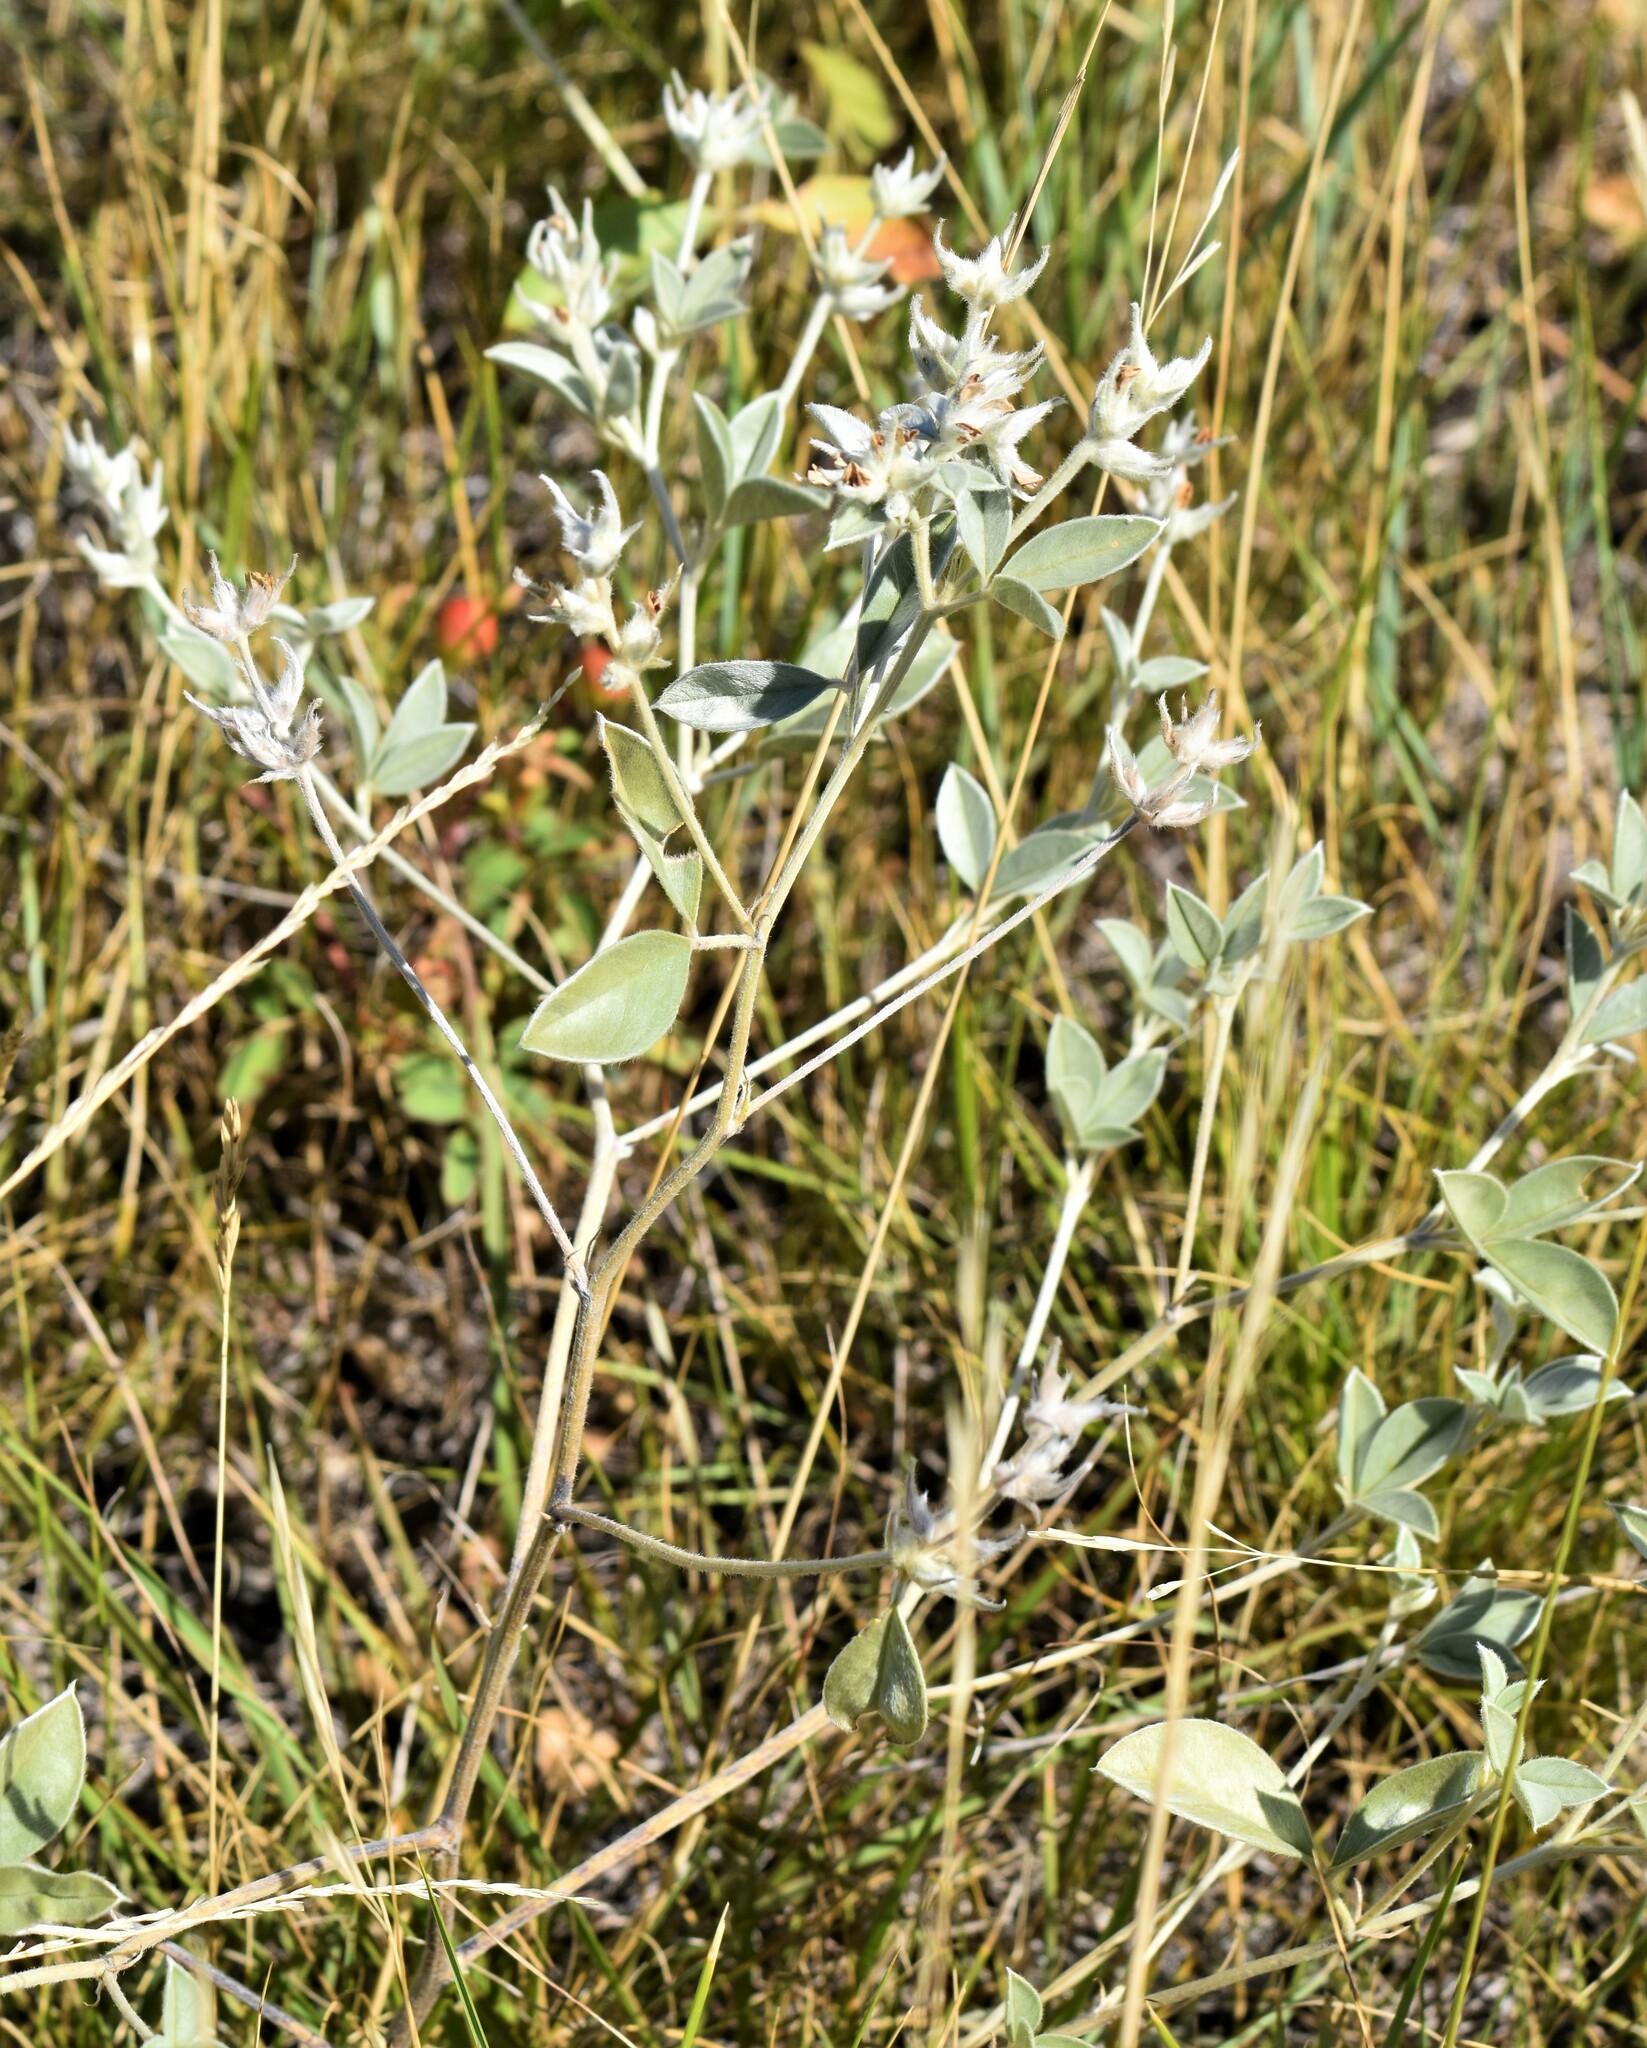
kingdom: Plantae
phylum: Tracheophyta
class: Magnoliopsida
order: Fabales
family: Fabaceae
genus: Pediomelum
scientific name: Pediomelum argophyllum
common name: Silver-leaved indian breadroot
